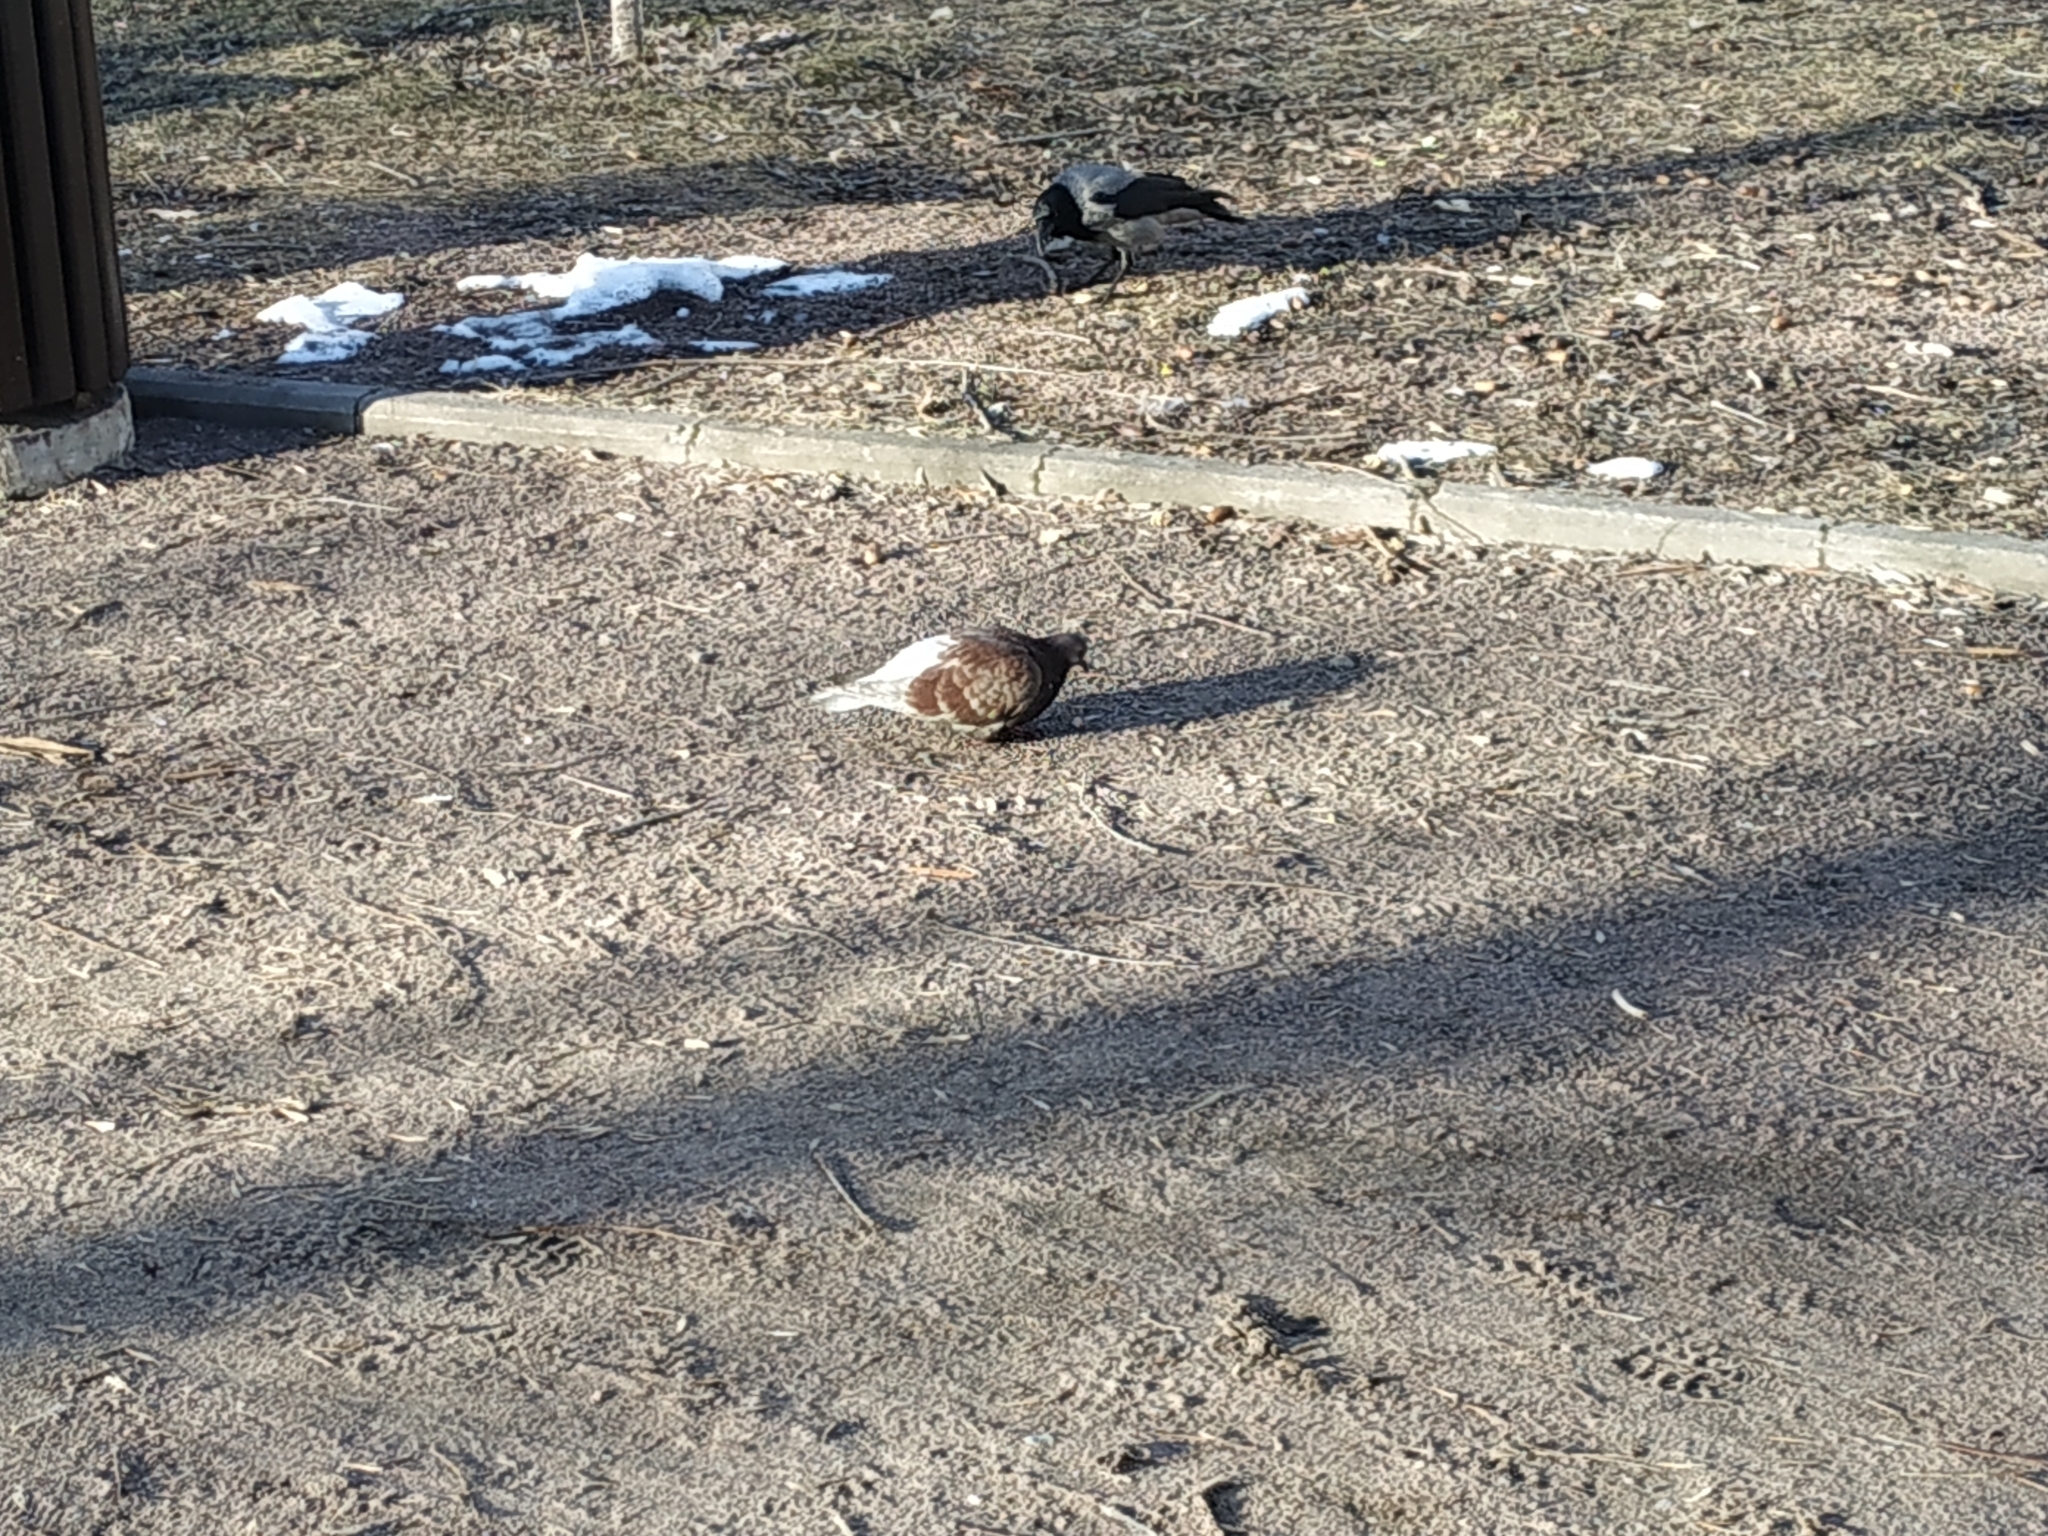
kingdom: Animalia
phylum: Chordata
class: Aves
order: Columbiformes
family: Columbidae
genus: Columba
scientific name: Columba livia
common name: Rock pigeon
